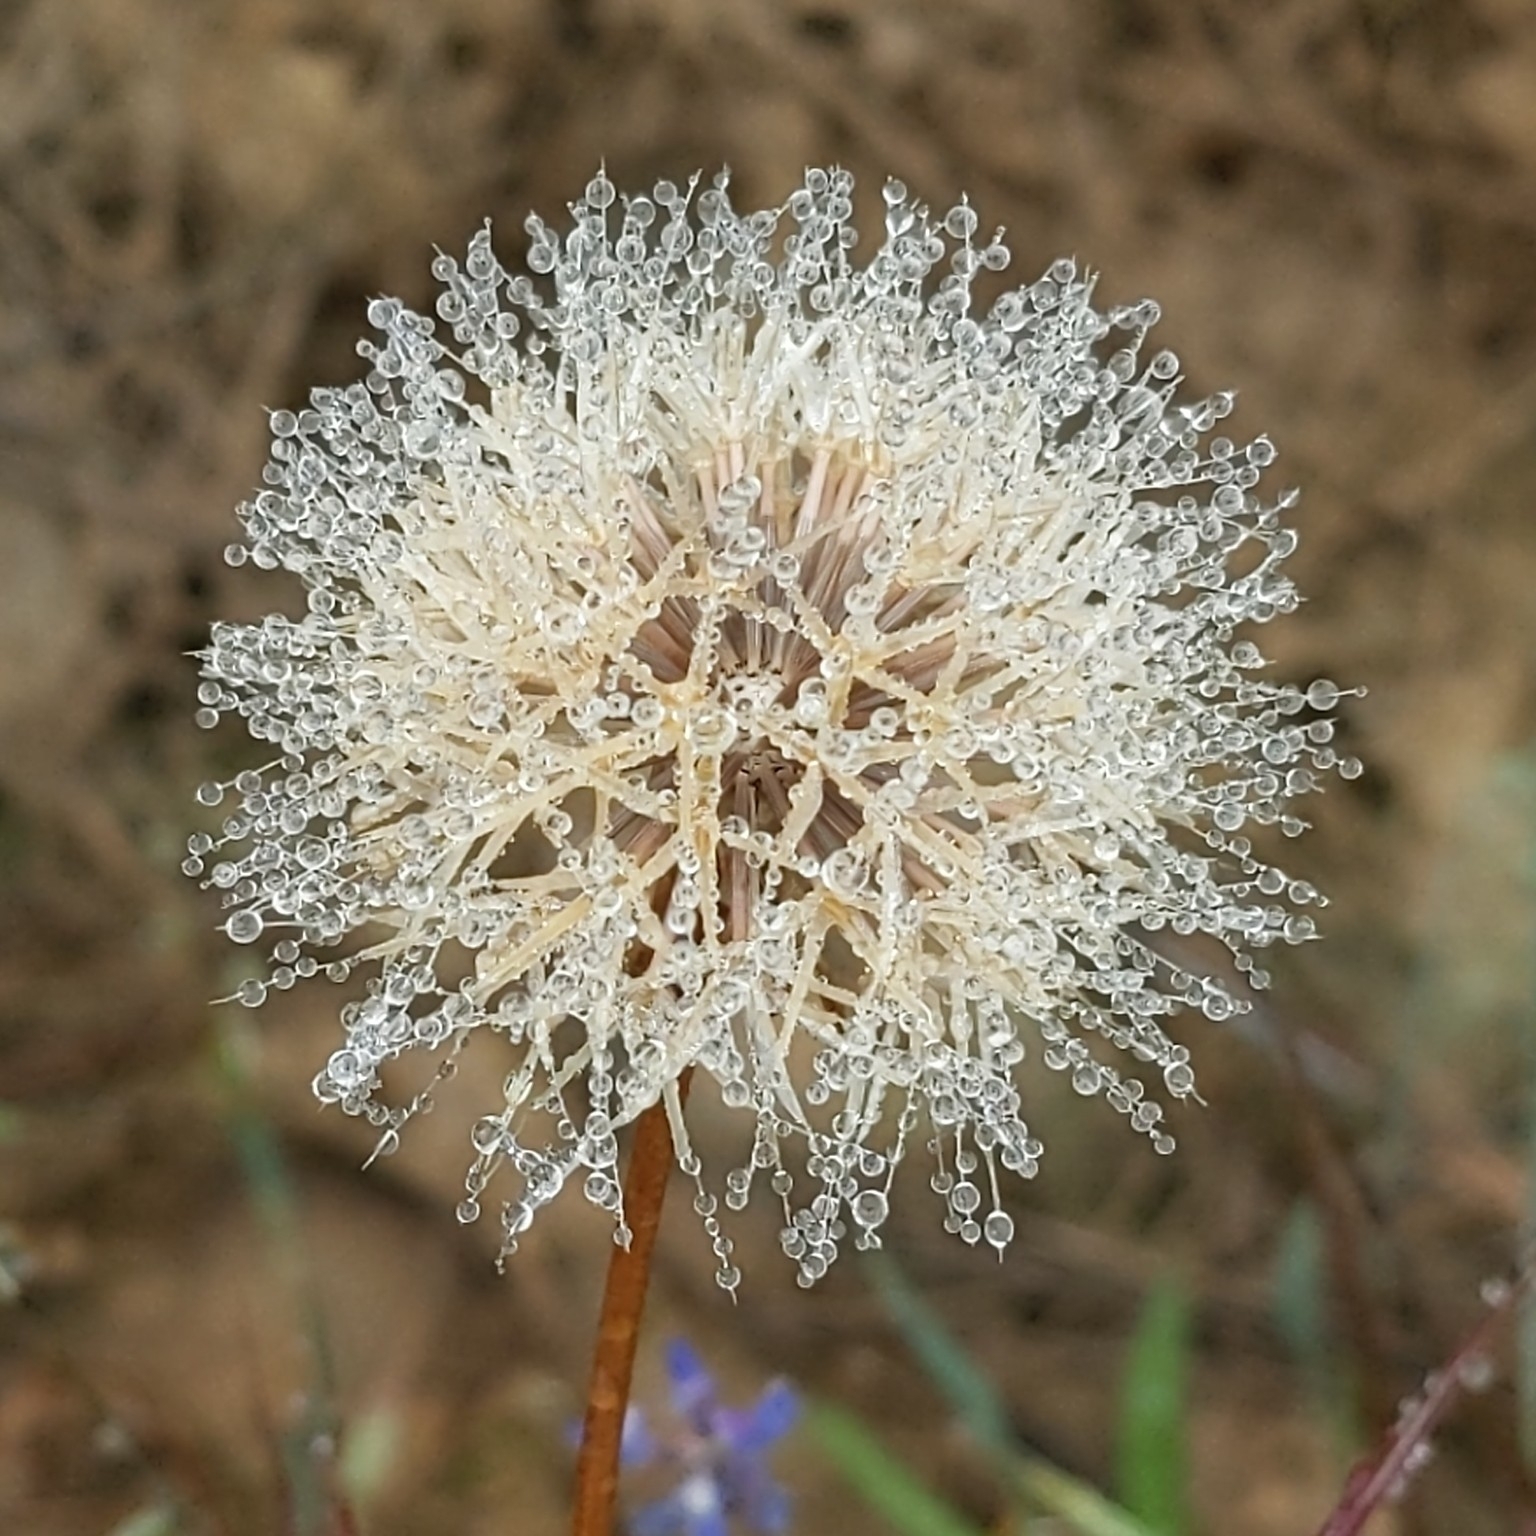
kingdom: Plantae
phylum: Tracheophyta
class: Magnoliopsida
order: Asterales
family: Asteraceae
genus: Microseris
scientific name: Microseris heterocarpa
